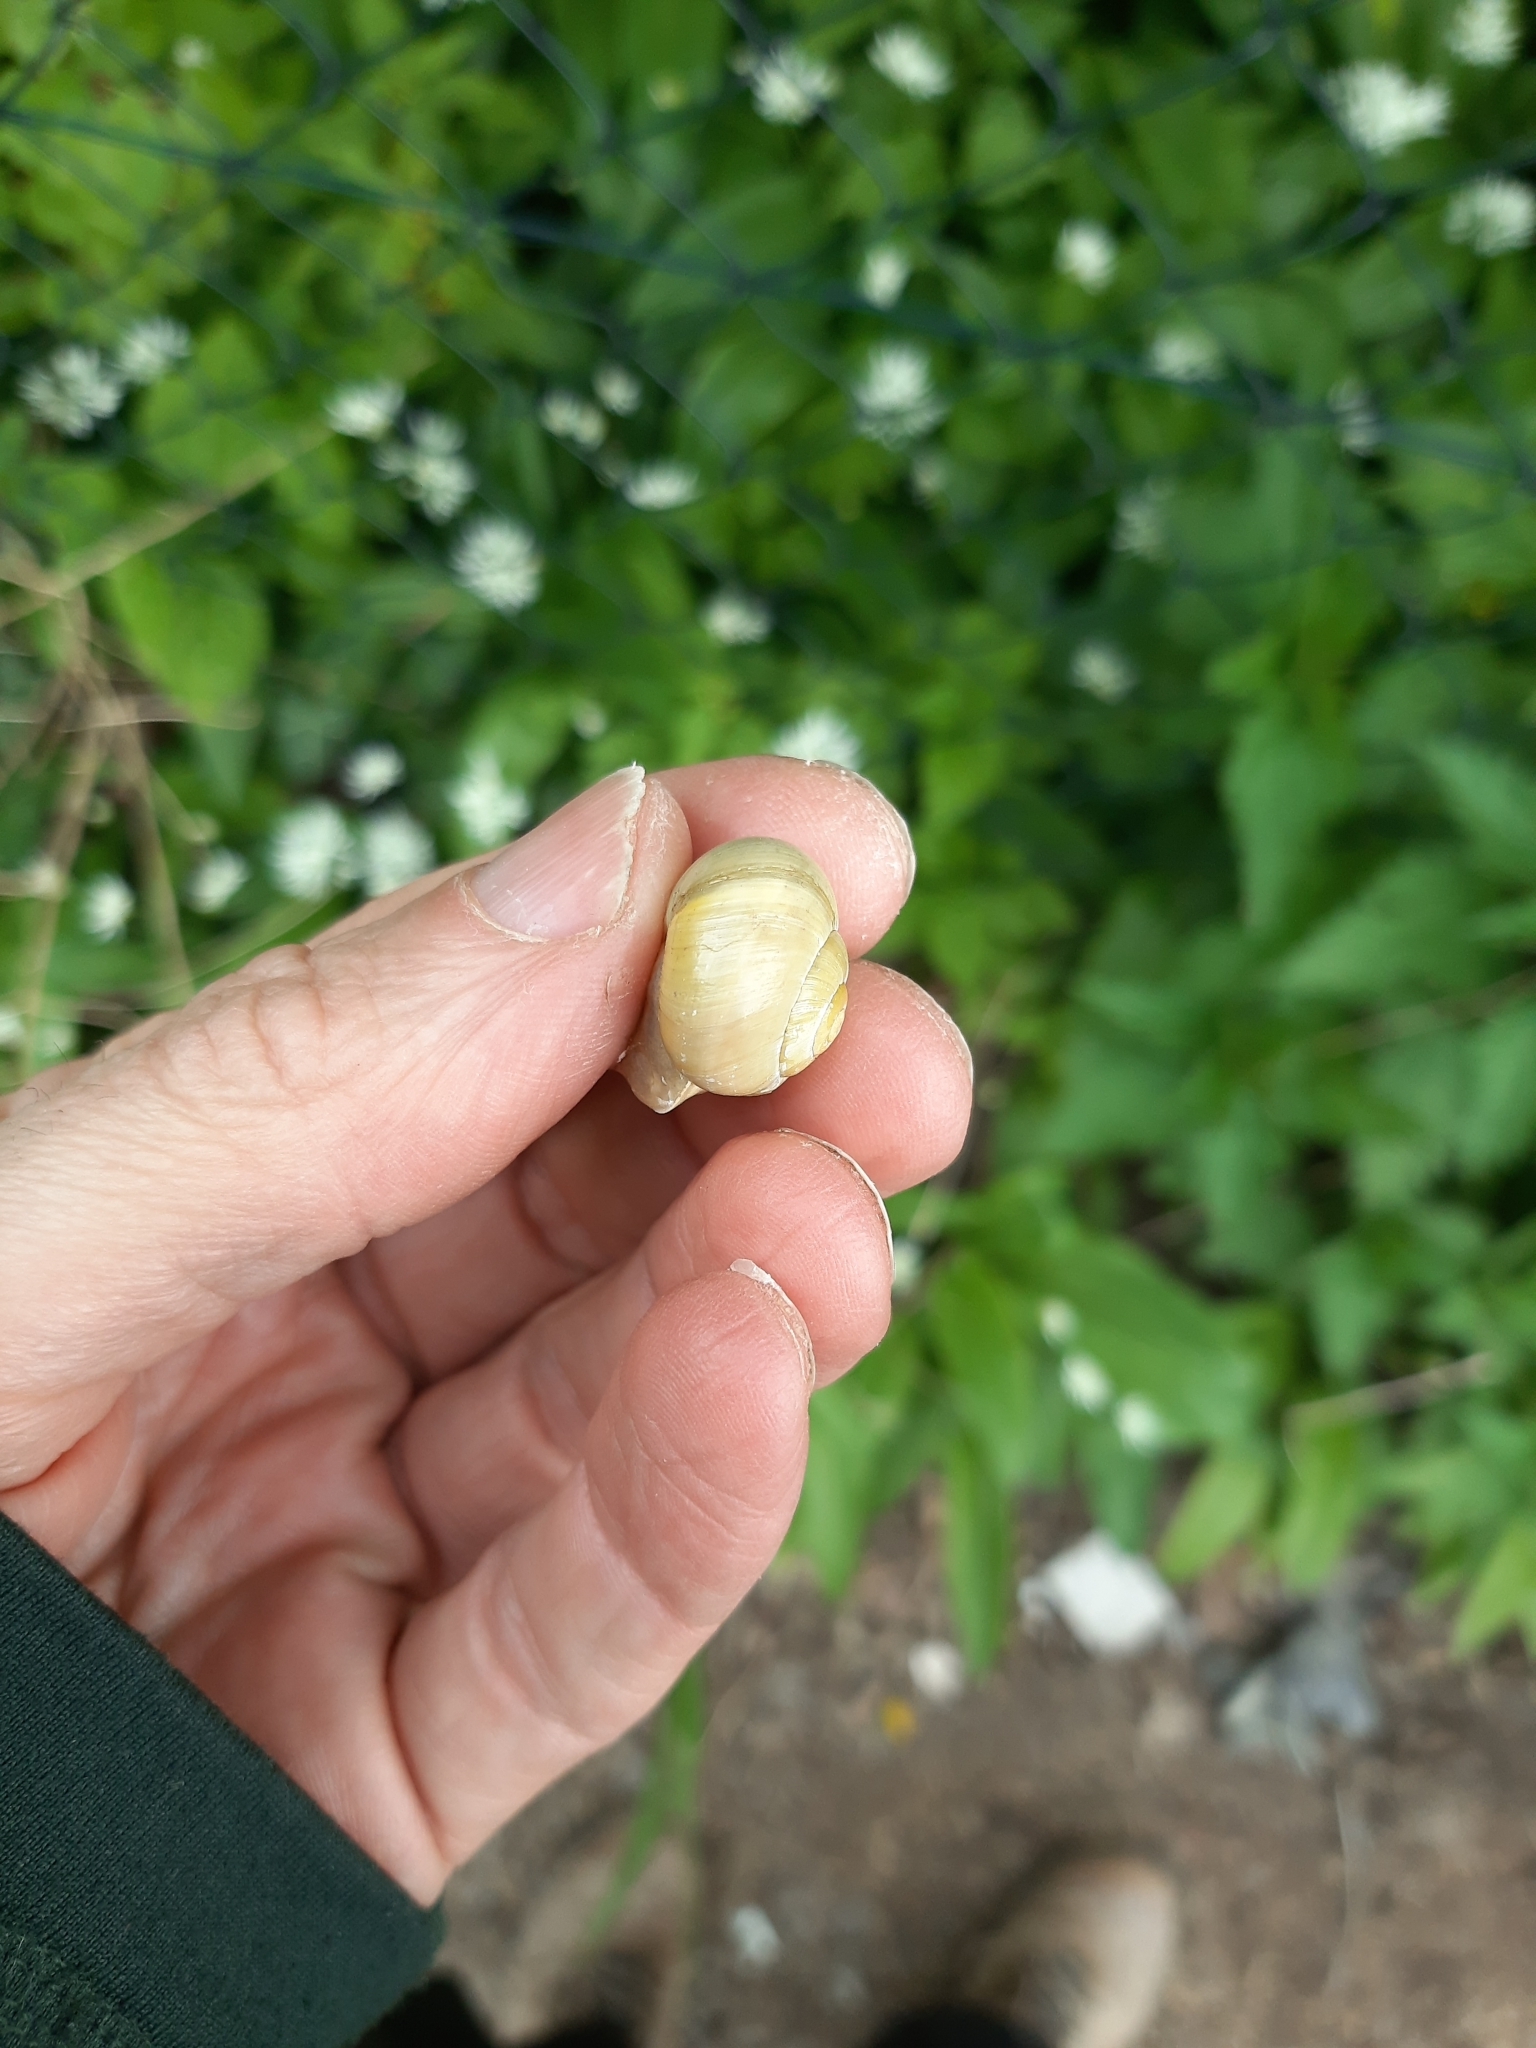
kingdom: Animalia
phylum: Mollusca
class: Gastropoda
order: Stylommatophora
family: Helicidae
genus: Cepaea
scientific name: Cepaea hortensis
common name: White-lip gardensnail
